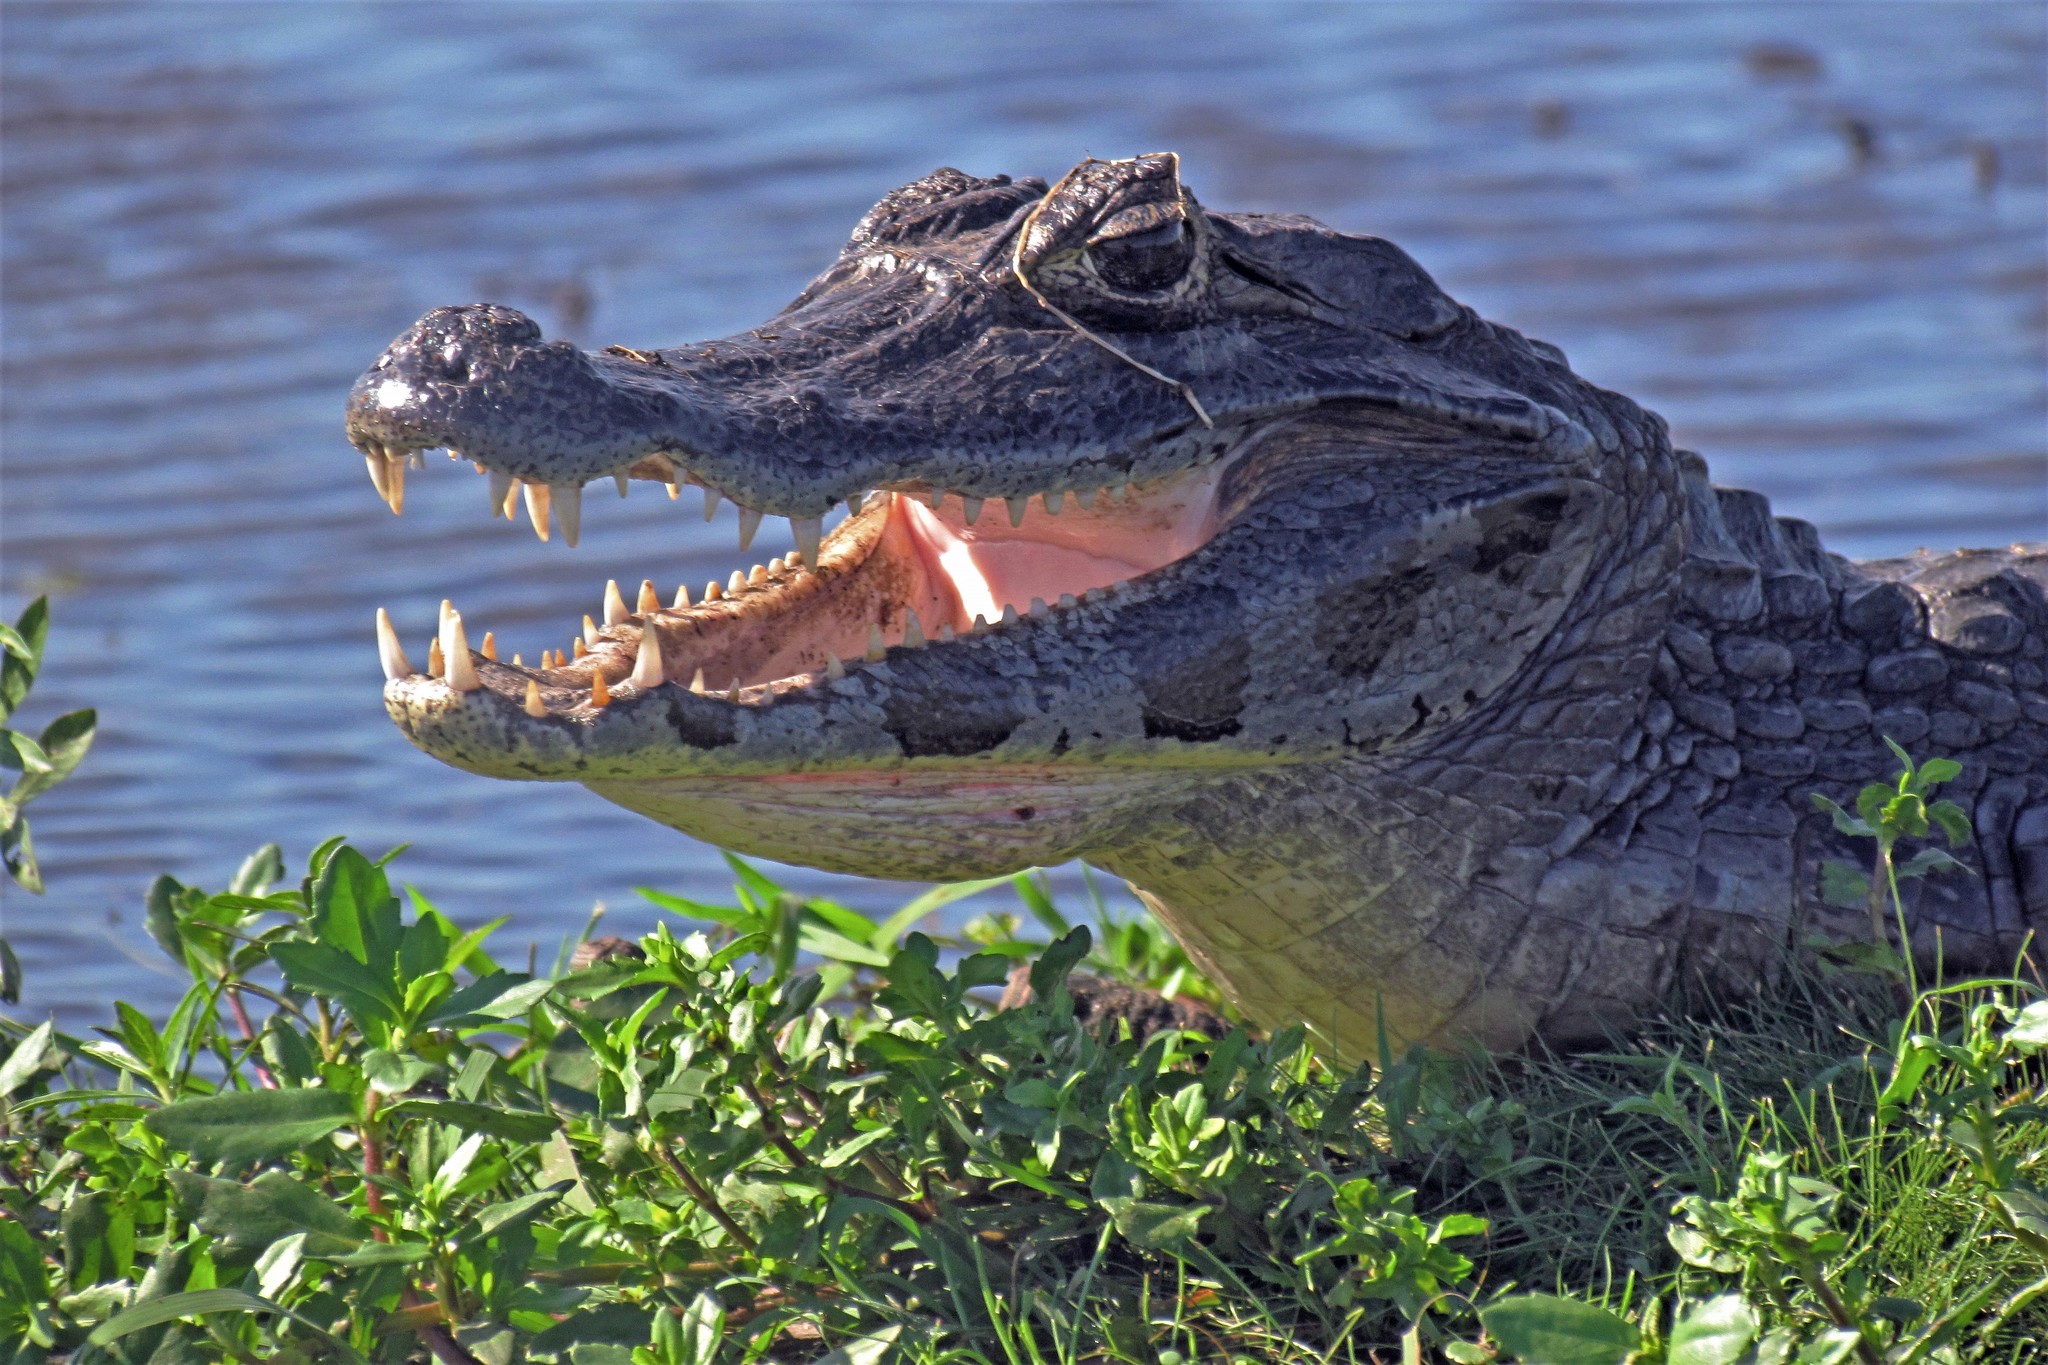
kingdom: Animalia
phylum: Chordata
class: Crocodylia
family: Alligatoridae
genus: Caiman
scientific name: Caiman yacare
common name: Yacare caiman
